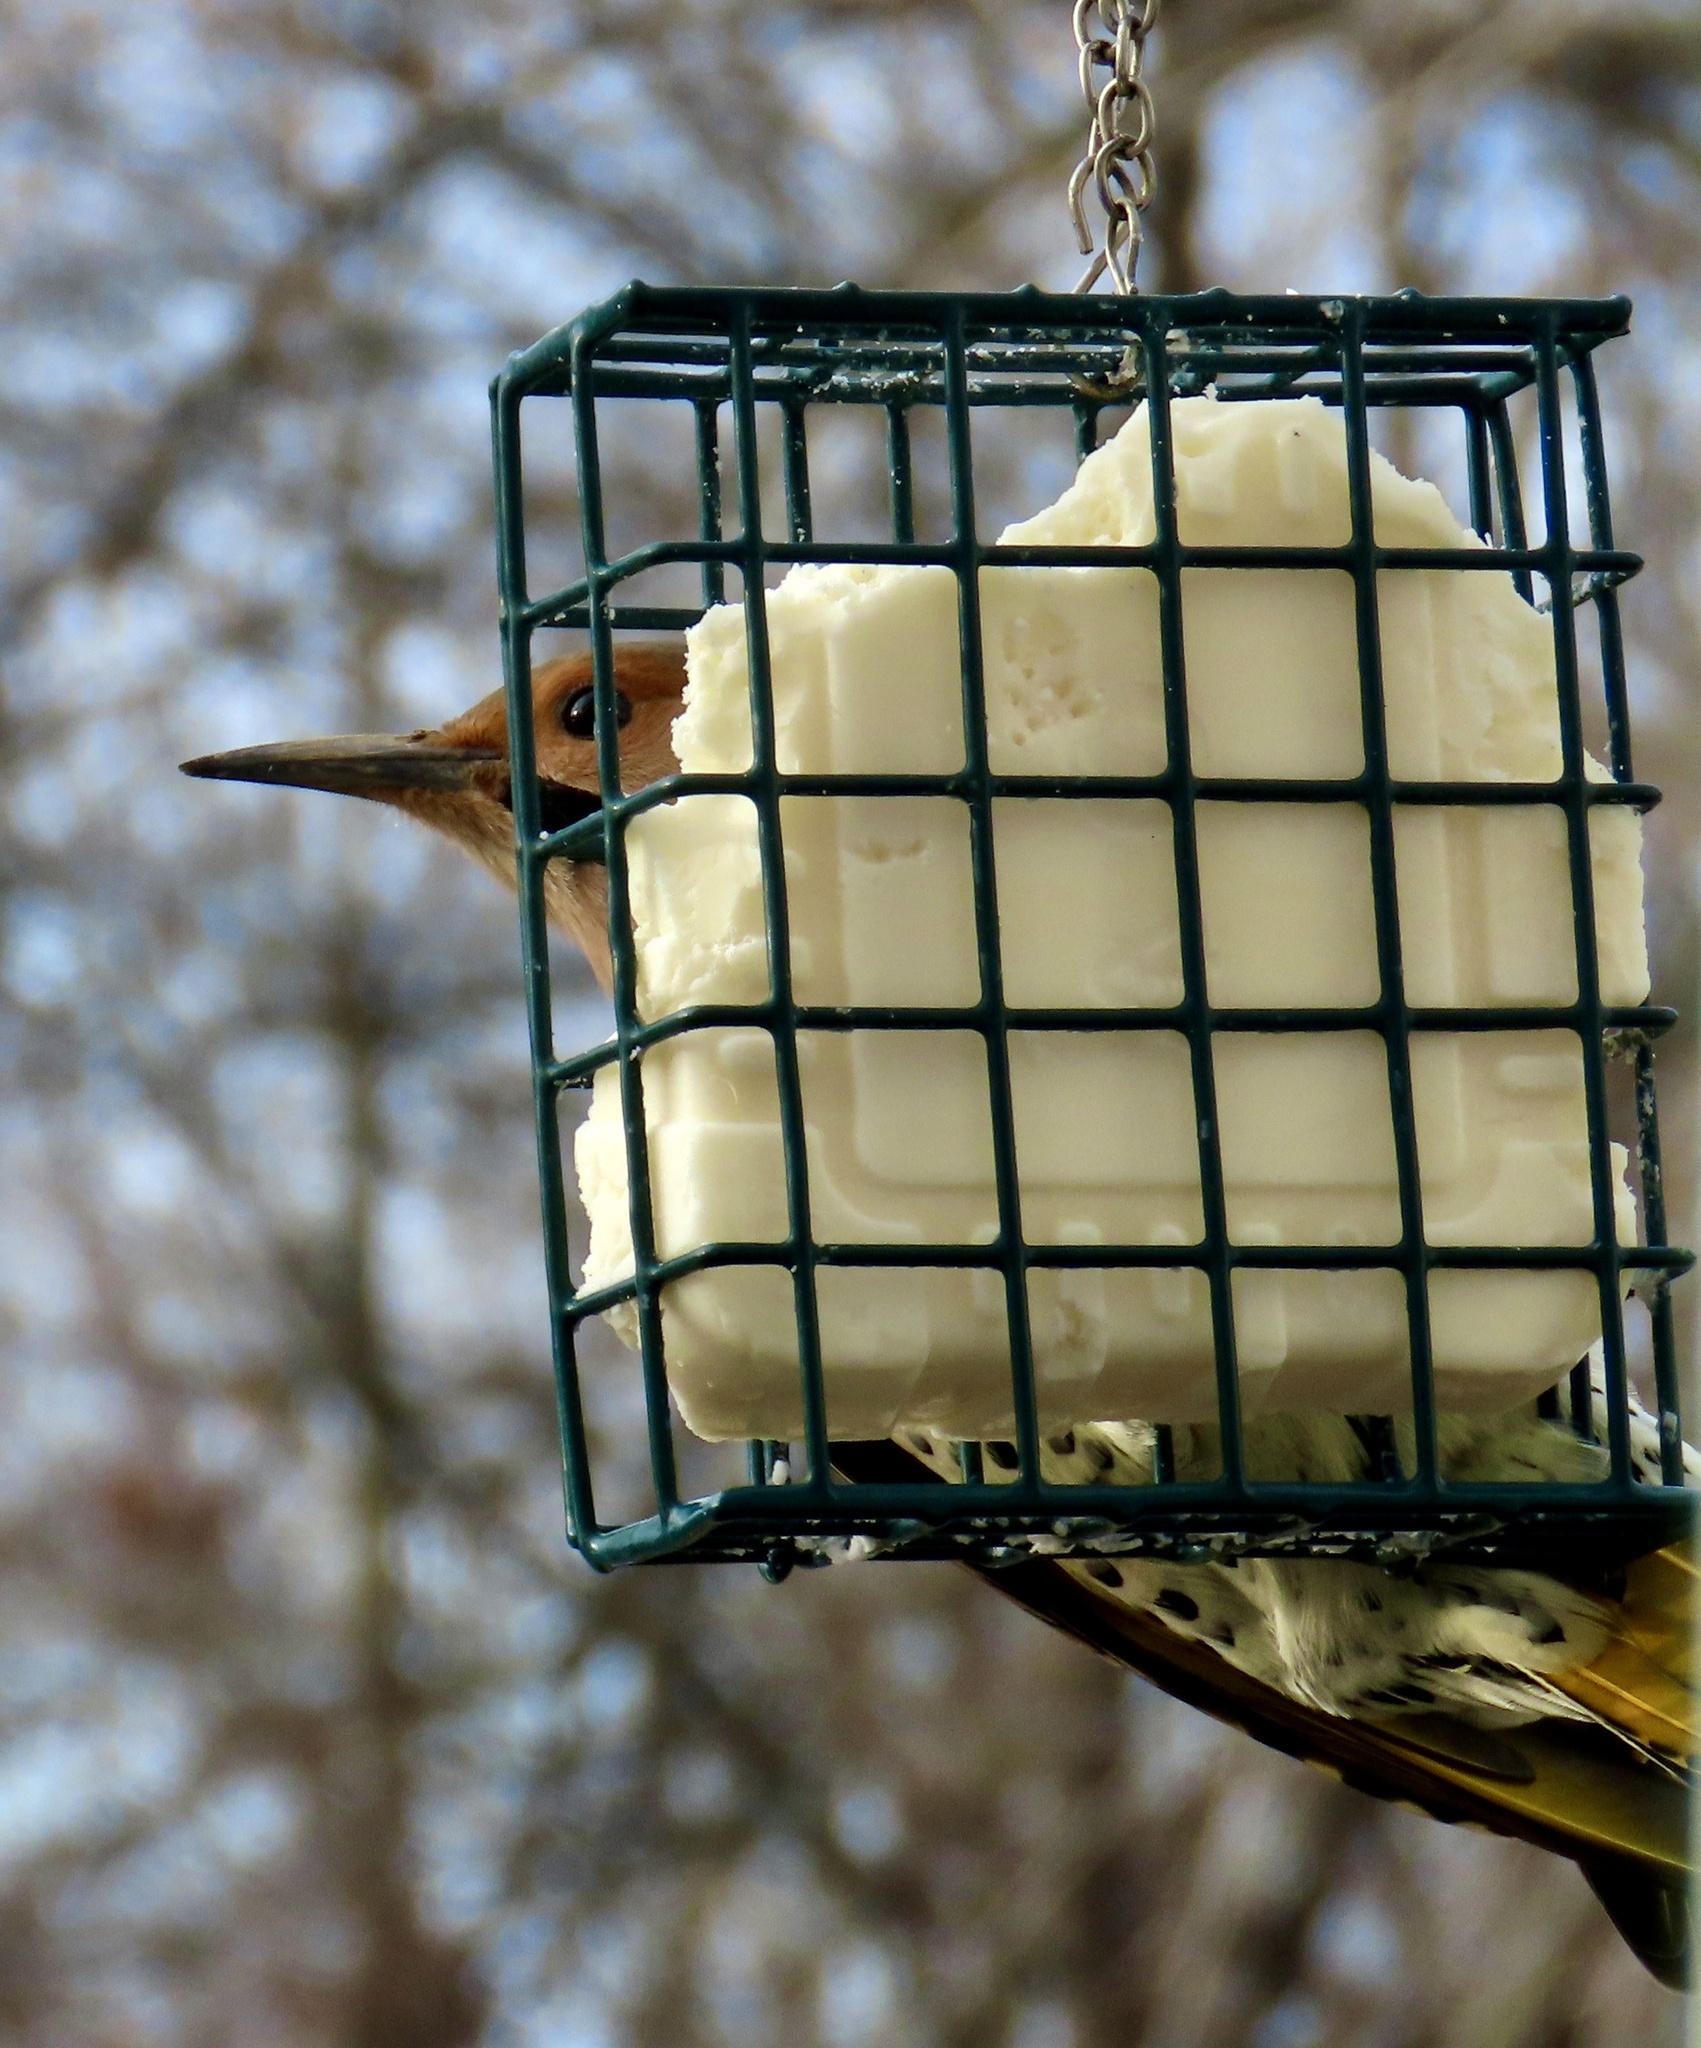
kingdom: Animalia
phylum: Chordata
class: Aves
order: Piciformes
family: Picidae
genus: Colaptes
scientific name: Colaptes auratus
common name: Northern flicker
